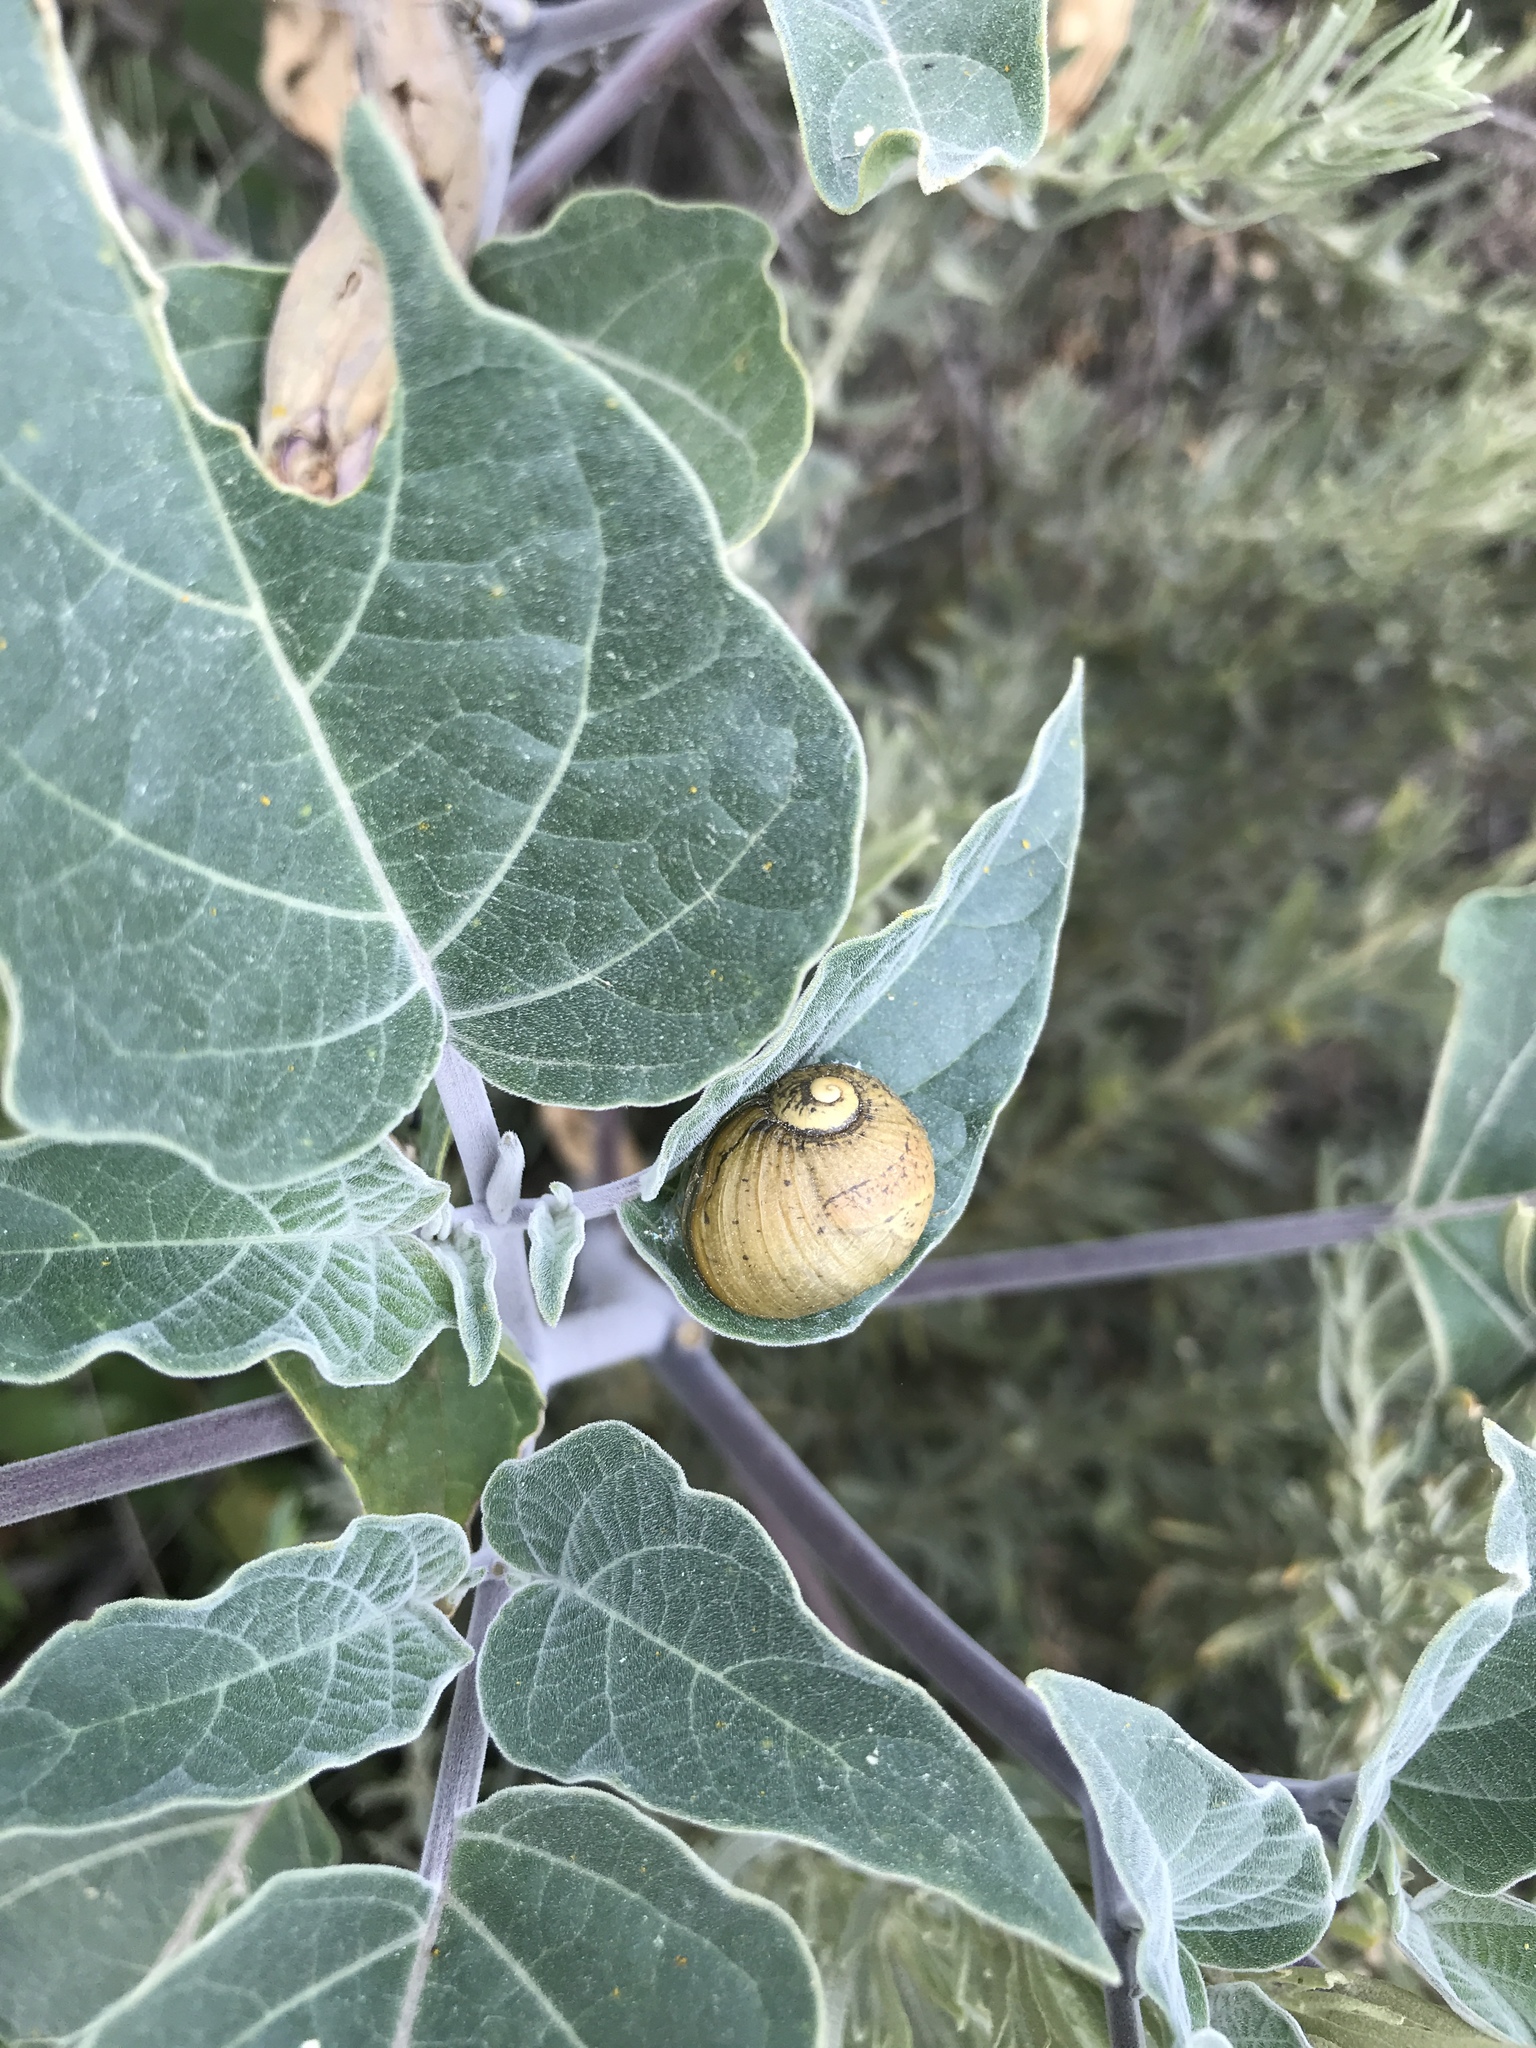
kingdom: Animalia
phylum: Mollusca
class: Gastropoda
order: Stylommatophora
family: Helicidae
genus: Cantareus
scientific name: Cantareus apertus
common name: Green gardensnail
